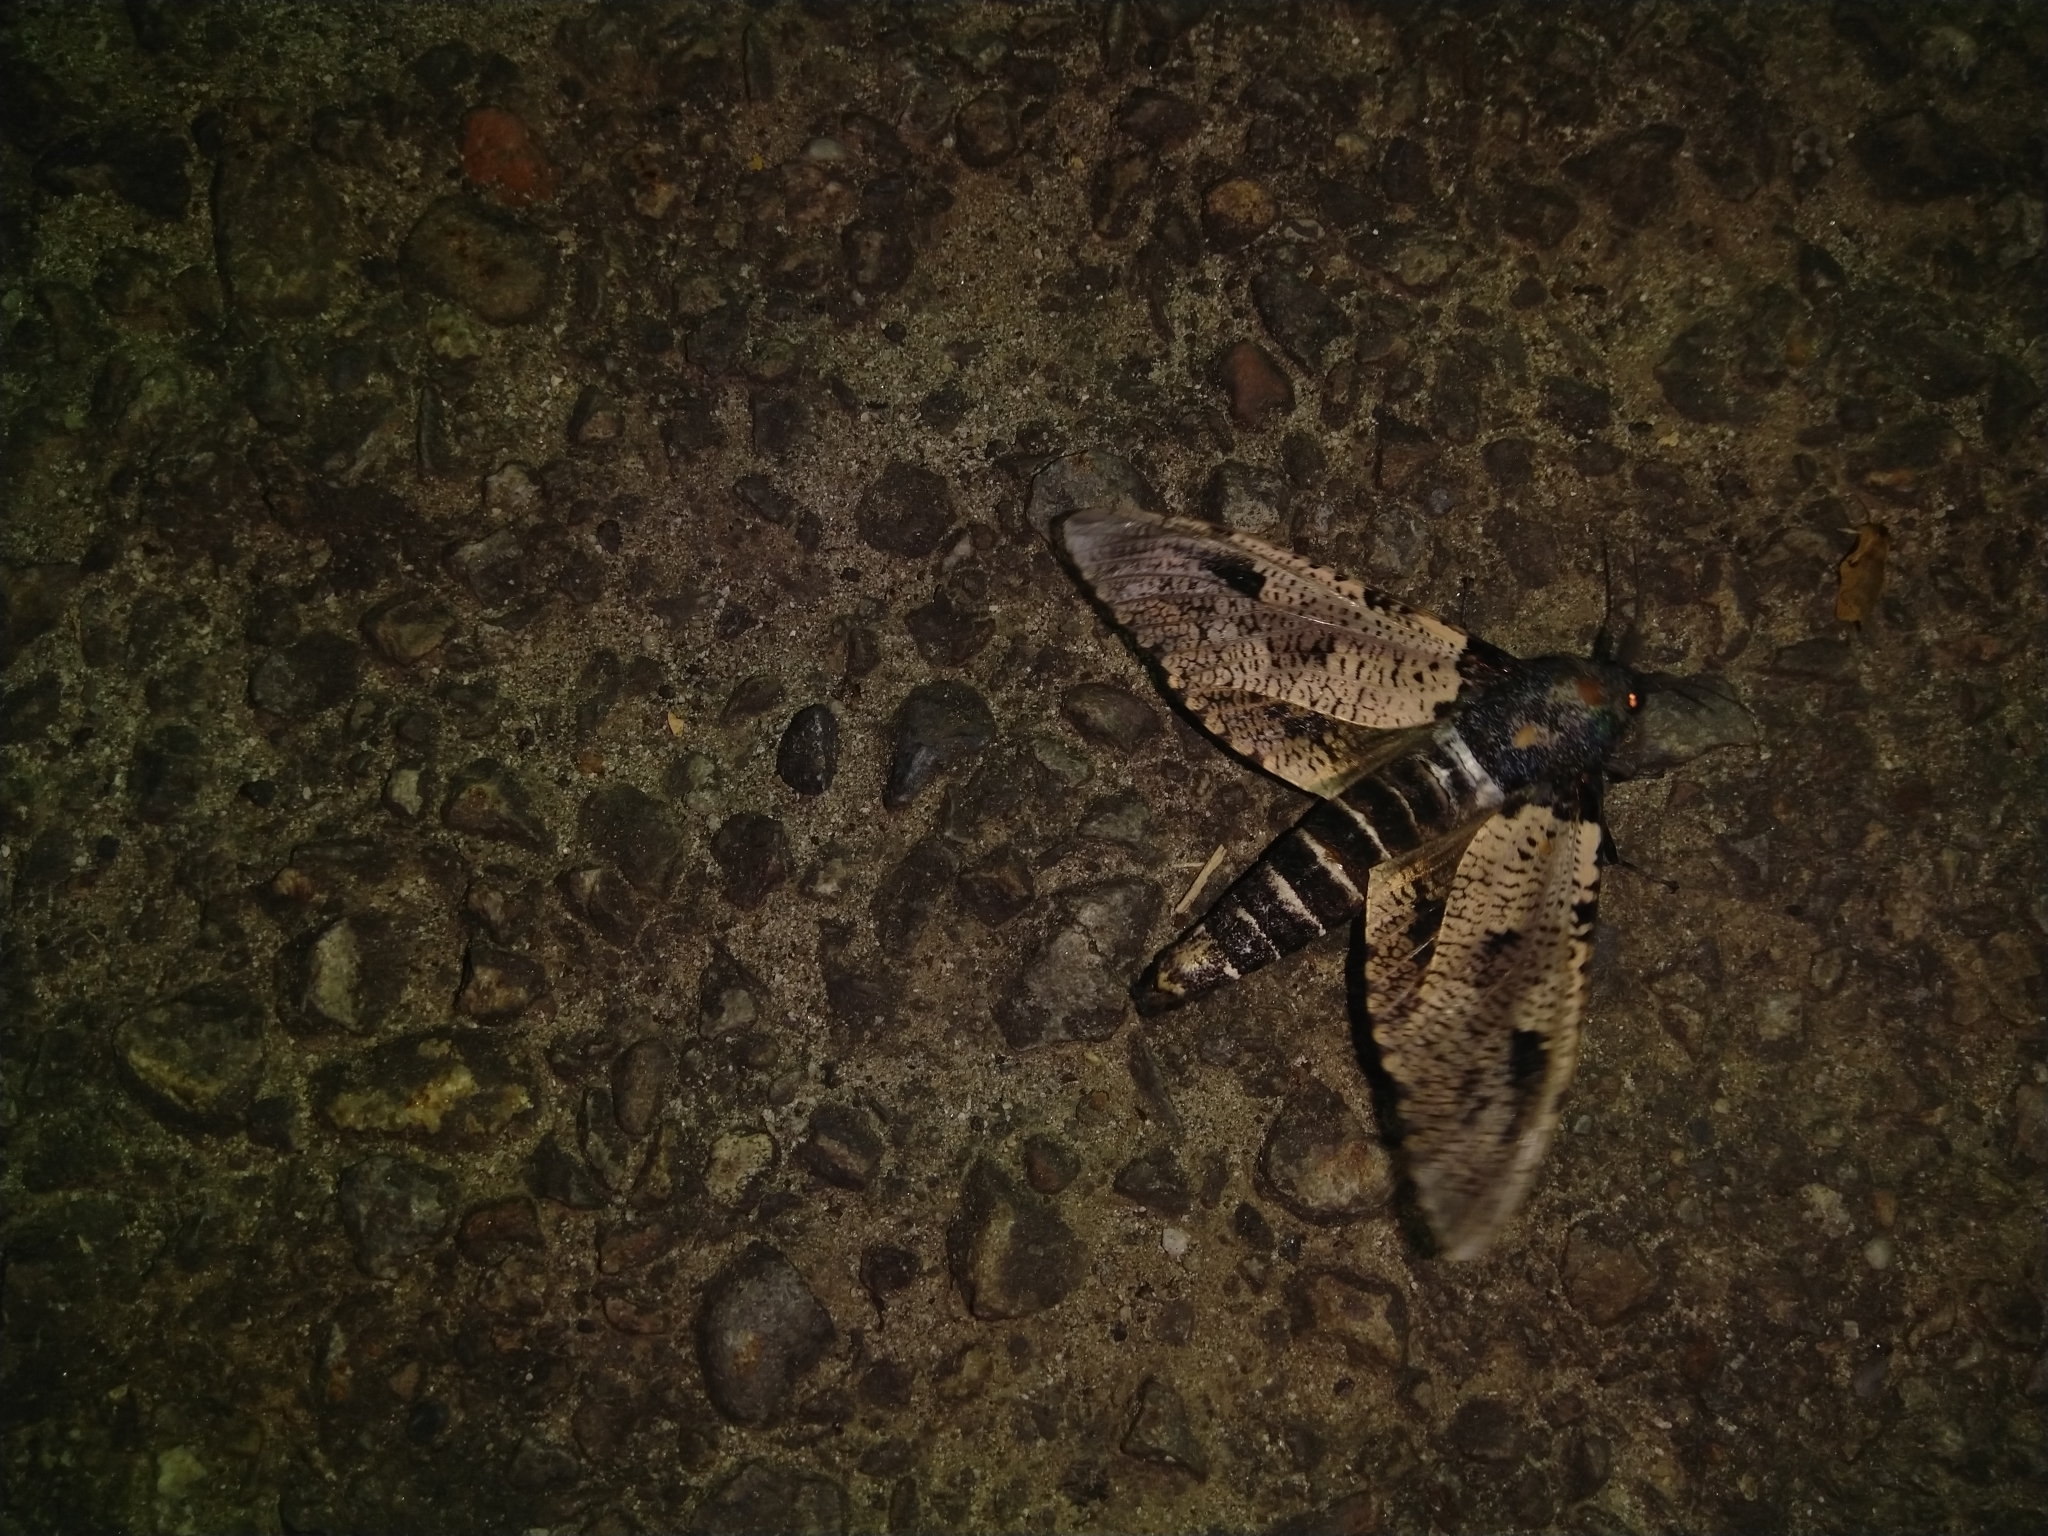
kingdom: Animalia
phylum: Arthropoda
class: Insecta
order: Lepidoptera
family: Cossidae
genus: Xyleutes
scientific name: Xyleutes strix
